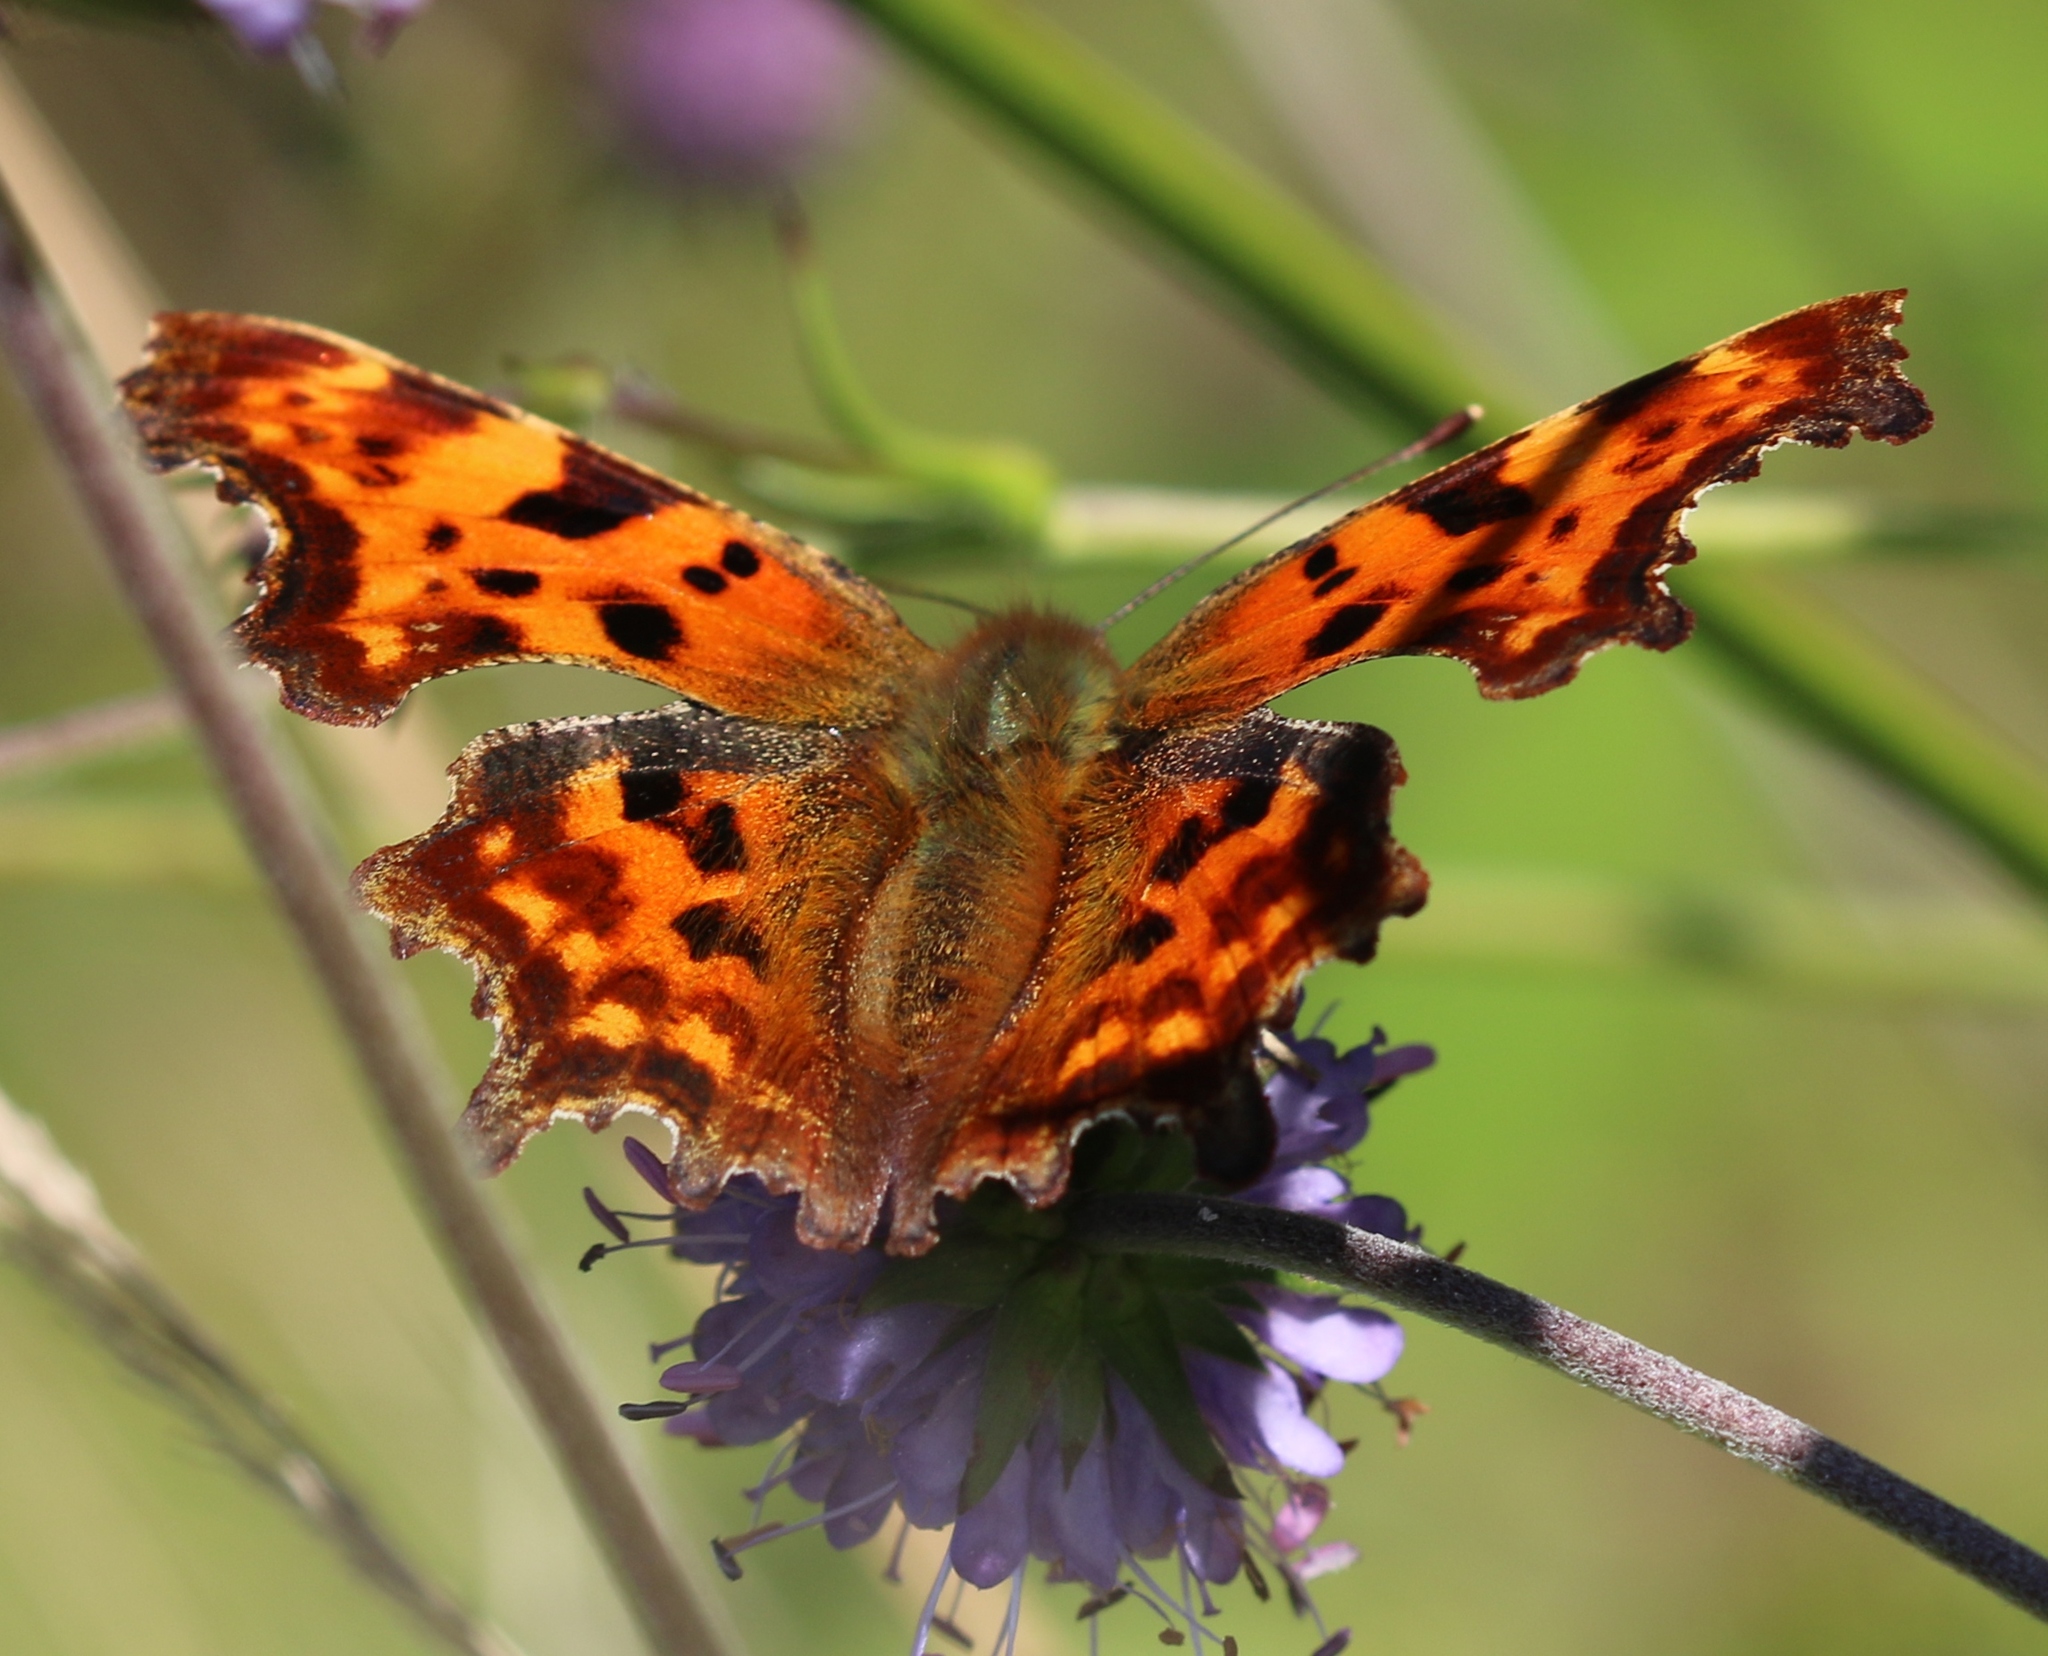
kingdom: Animalia
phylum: Arthropoda
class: Insecta
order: Lepidoptera
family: Nymphalidae
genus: Polygonia
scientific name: Polygonia c-album
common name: Comma
